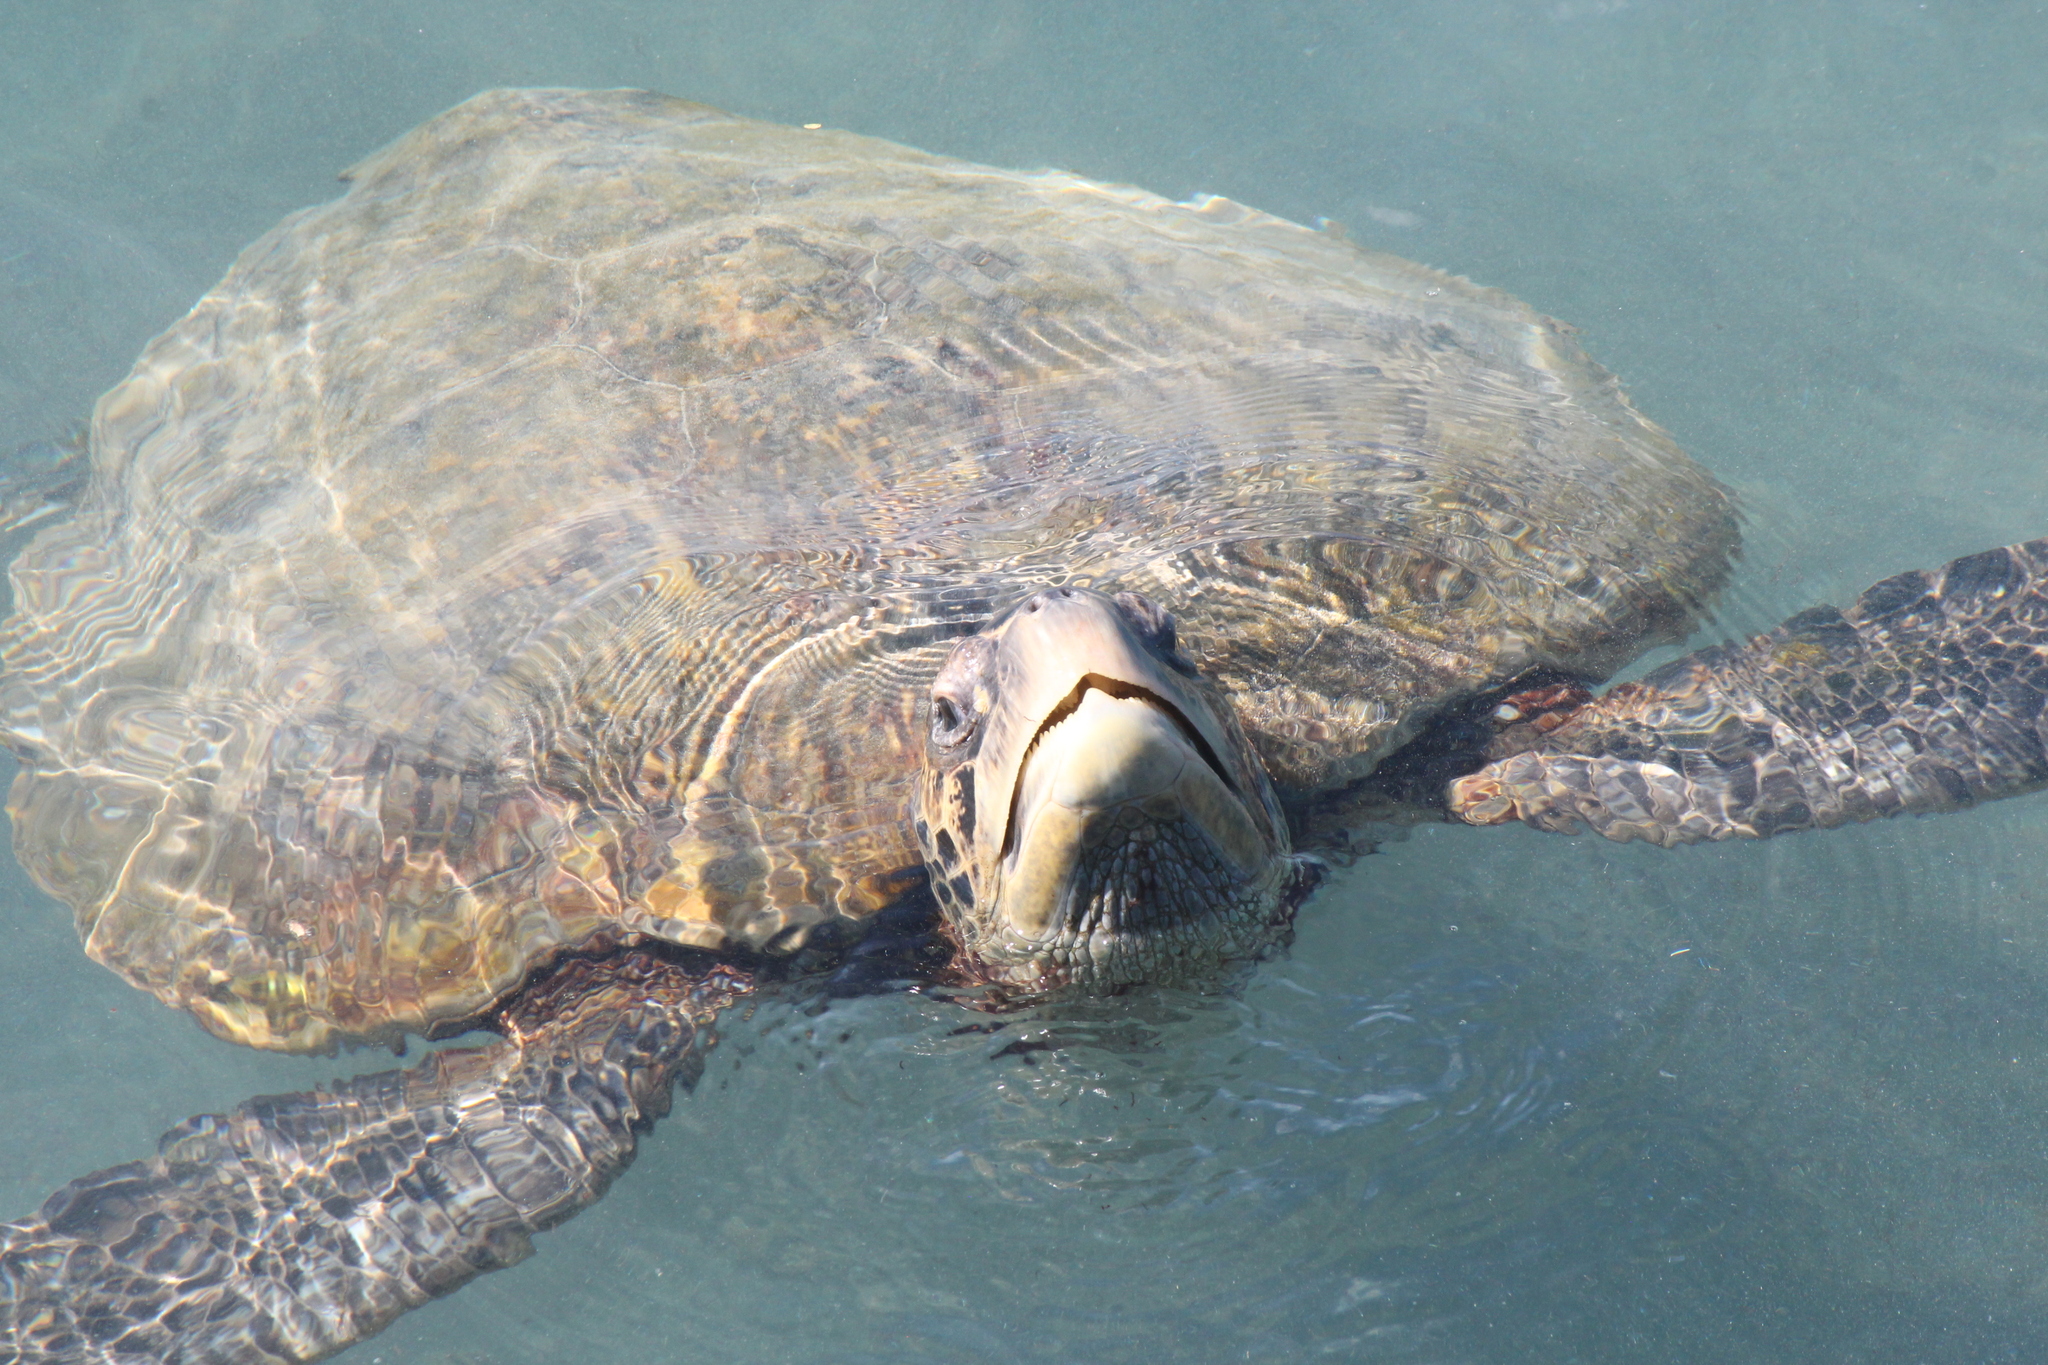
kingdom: Animalia
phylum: Chordata
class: Testudines
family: Cheloniidae
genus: Chelonia
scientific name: Chelonia mydas
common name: Green turtle
